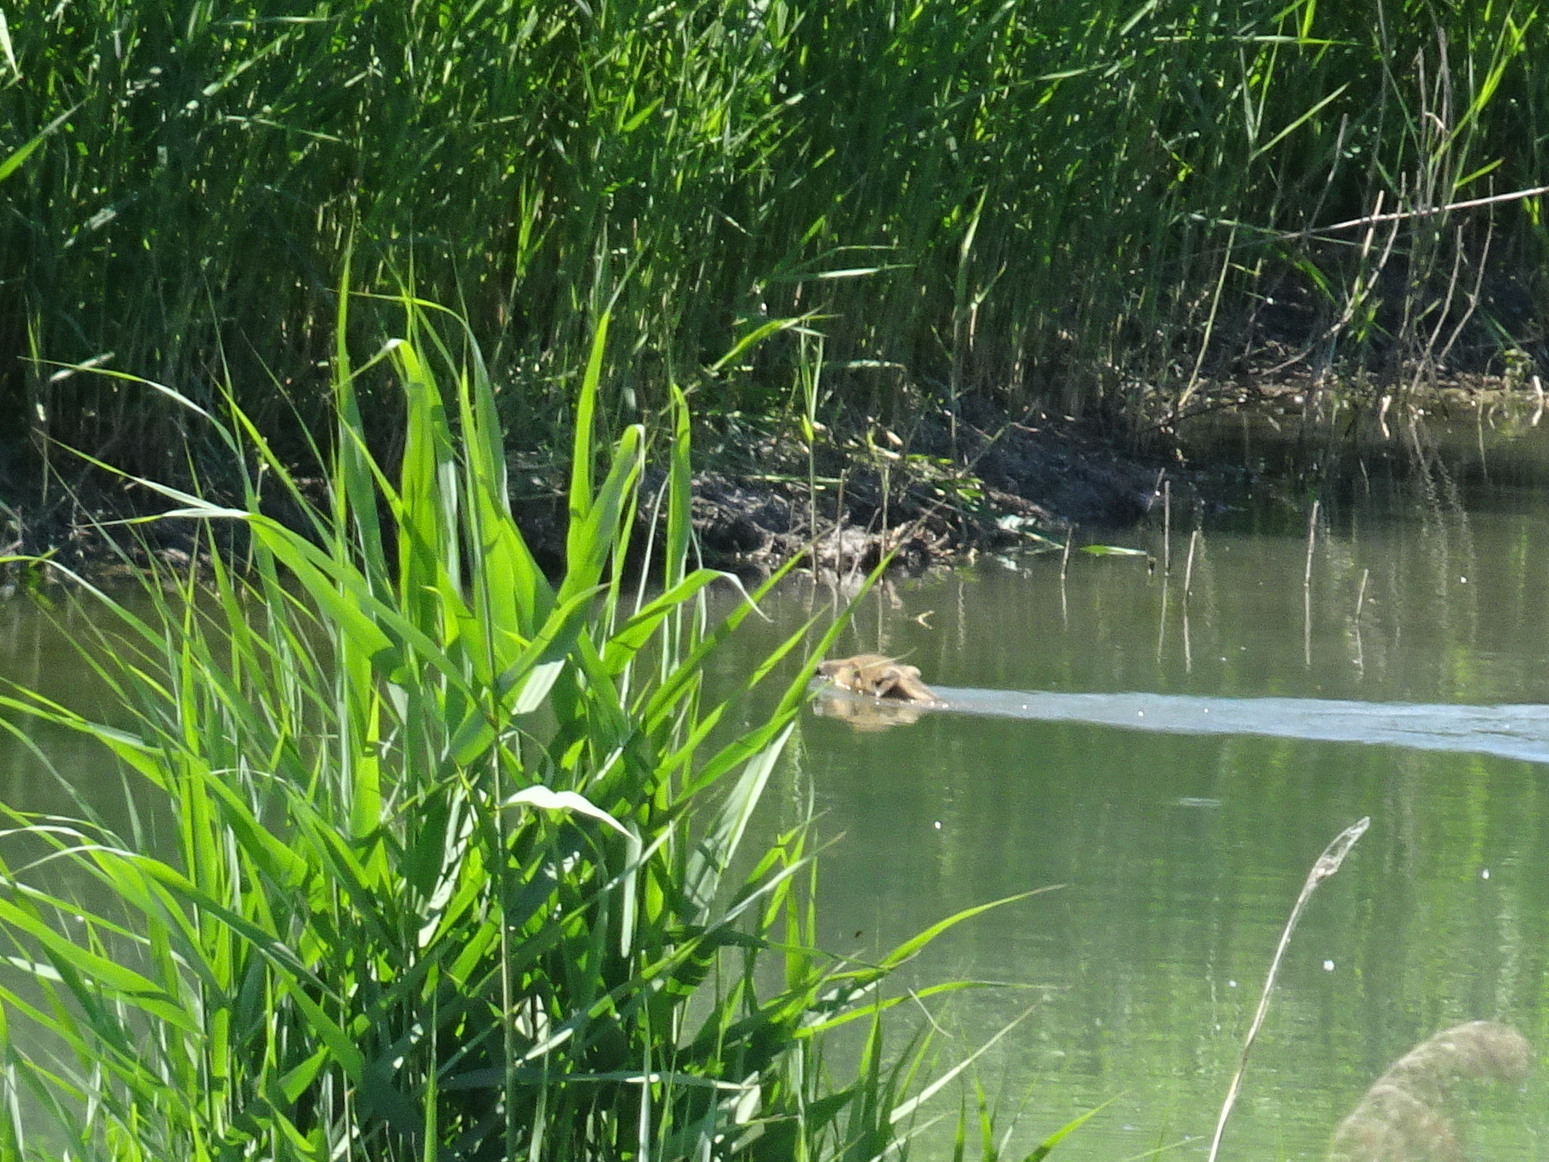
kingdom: Animalia
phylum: Chordata
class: Mammalia
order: Artiodactyla
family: Suidae
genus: Sus
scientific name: Sus scrofa
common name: Wild boar
